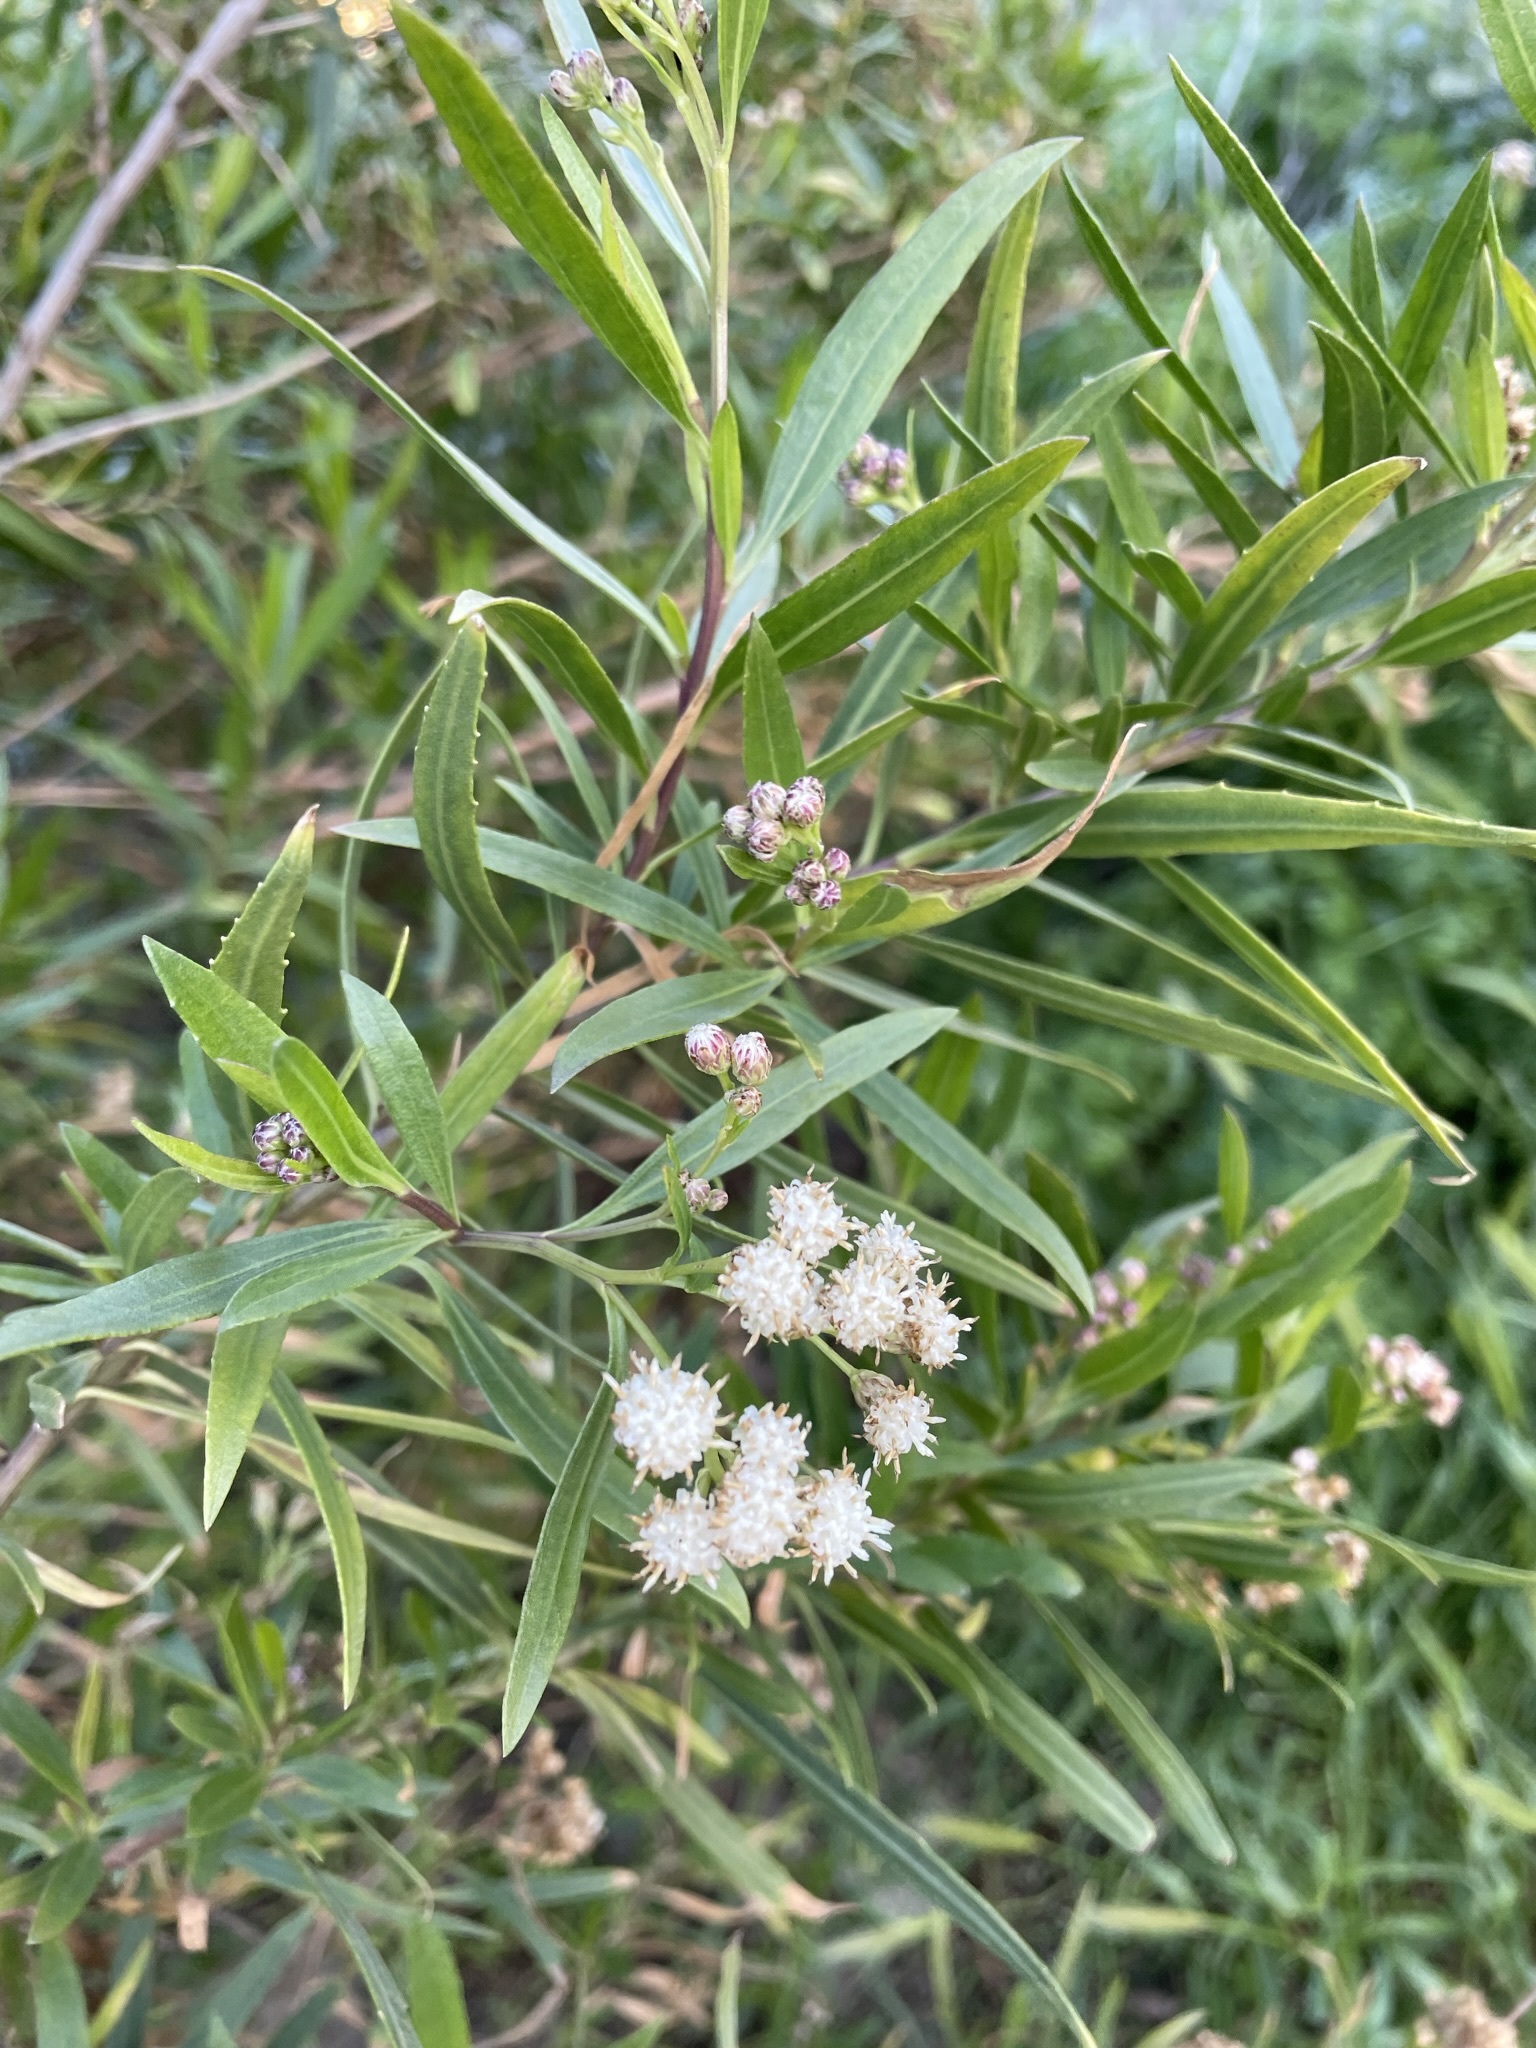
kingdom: Plantae
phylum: Tracheophyta
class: Magnoliopsida
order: Asterales
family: Asteraceae
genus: Baccharis
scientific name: Baccharis salicifolia
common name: Sticky baccharis
